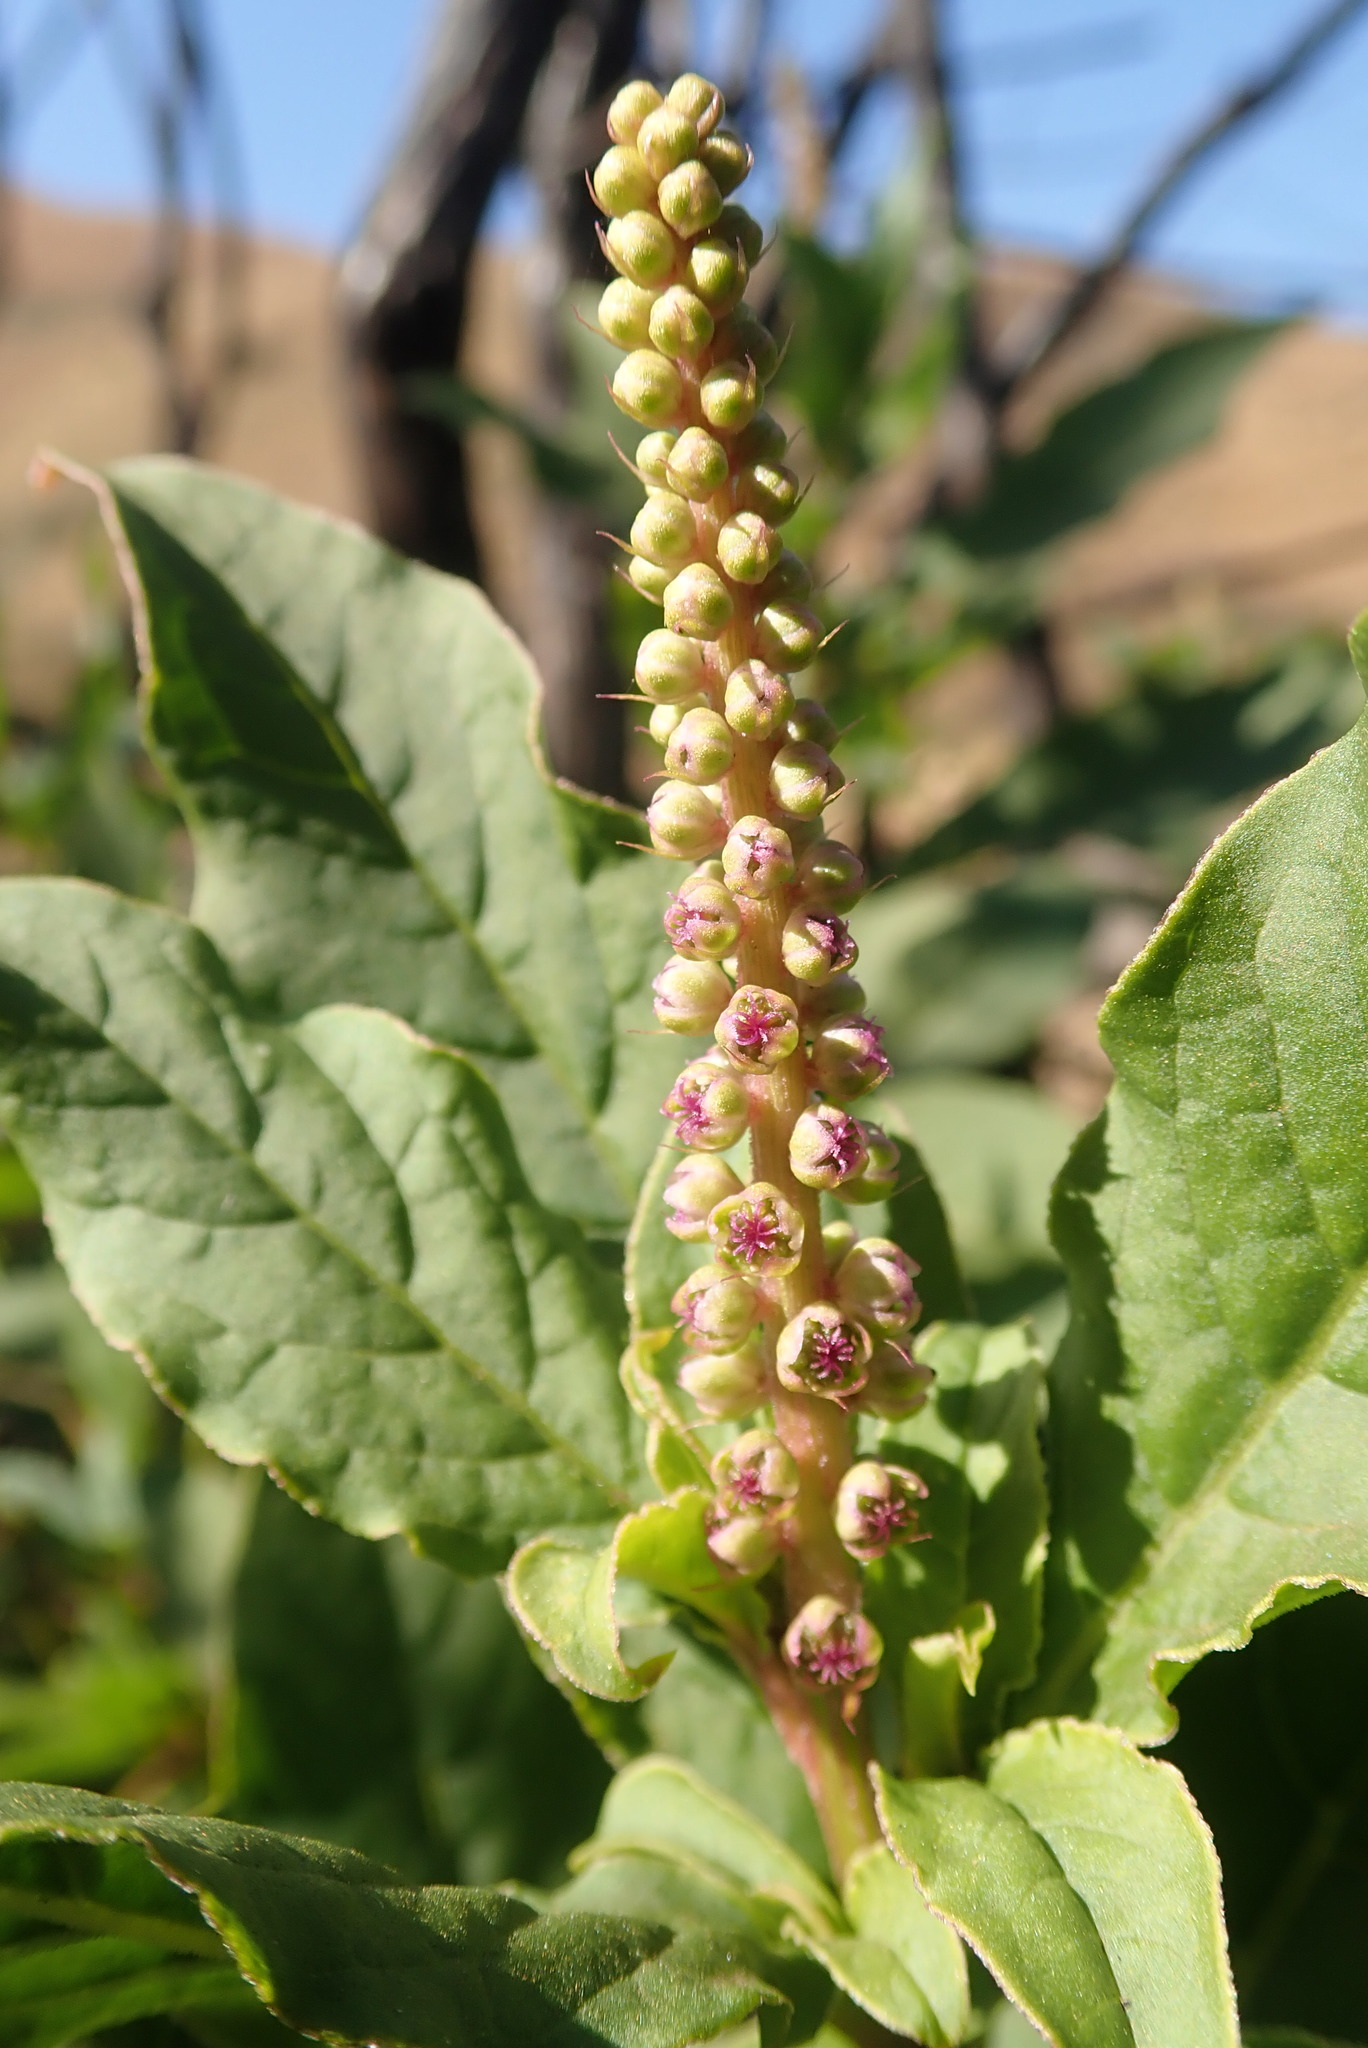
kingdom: Plantae
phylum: Tracheophyta
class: Magnoliopsida
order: Caryophyllales
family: Phytolaccaceae
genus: Phytolacca
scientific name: Phytolacca icosandra
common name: Button pokeweed
